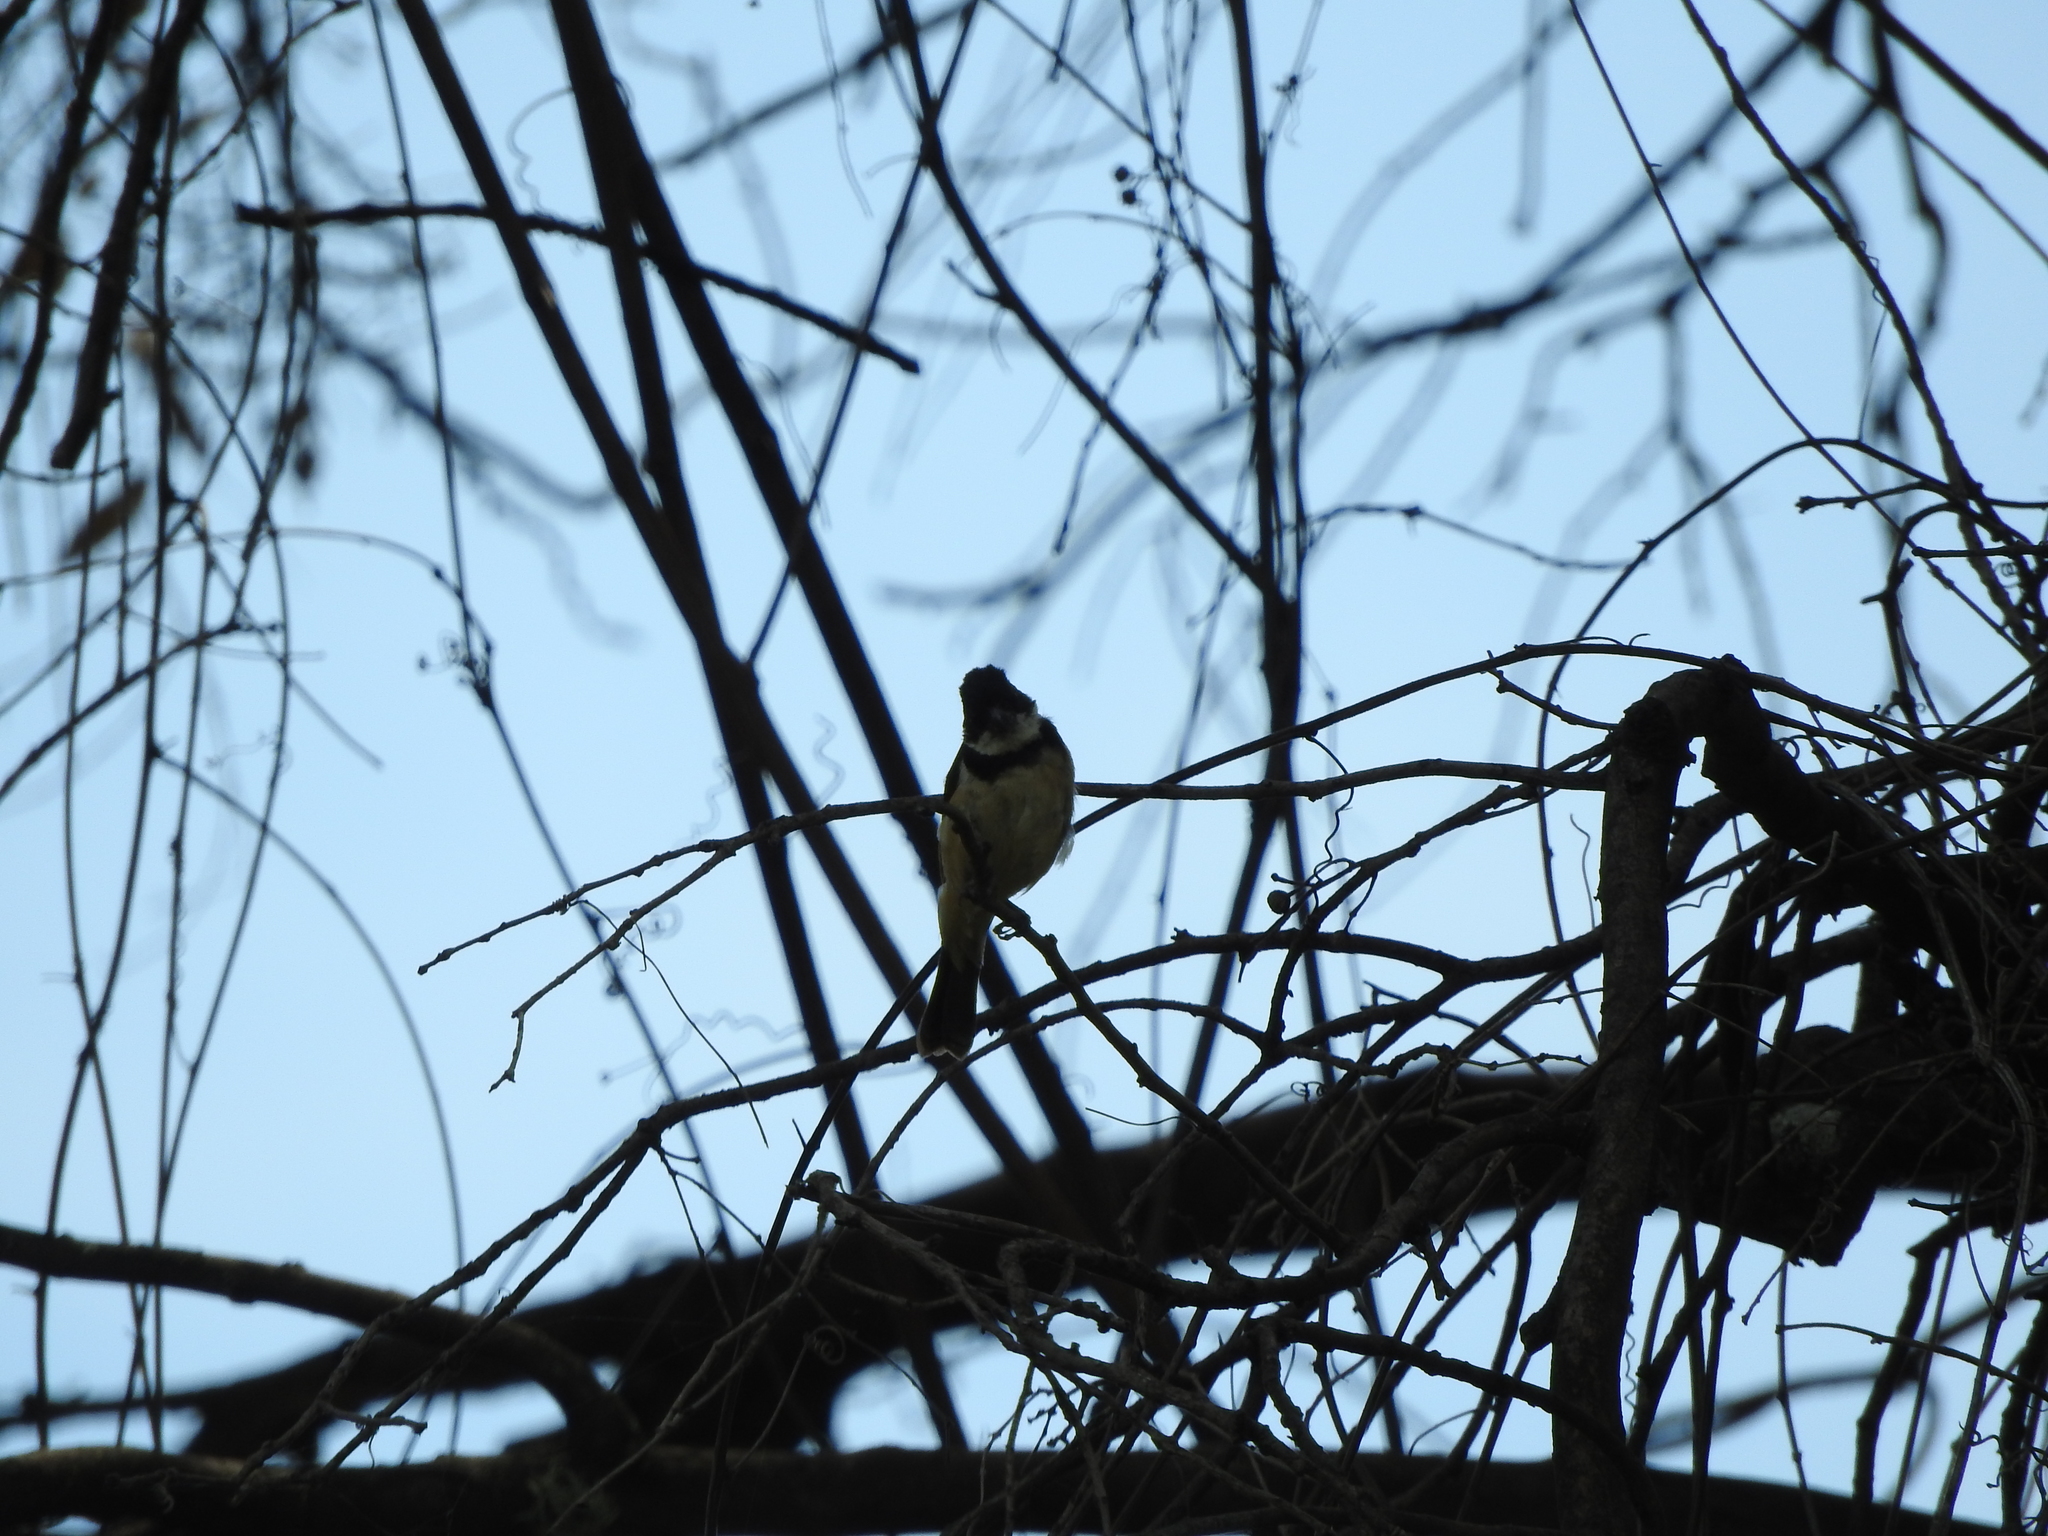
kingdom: Animalia
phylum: Chordata
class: Aves
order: Passeriformes
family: Thraupidae
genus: Sporophila
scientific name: Sporophila torqueola
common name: White-collared seedeater
